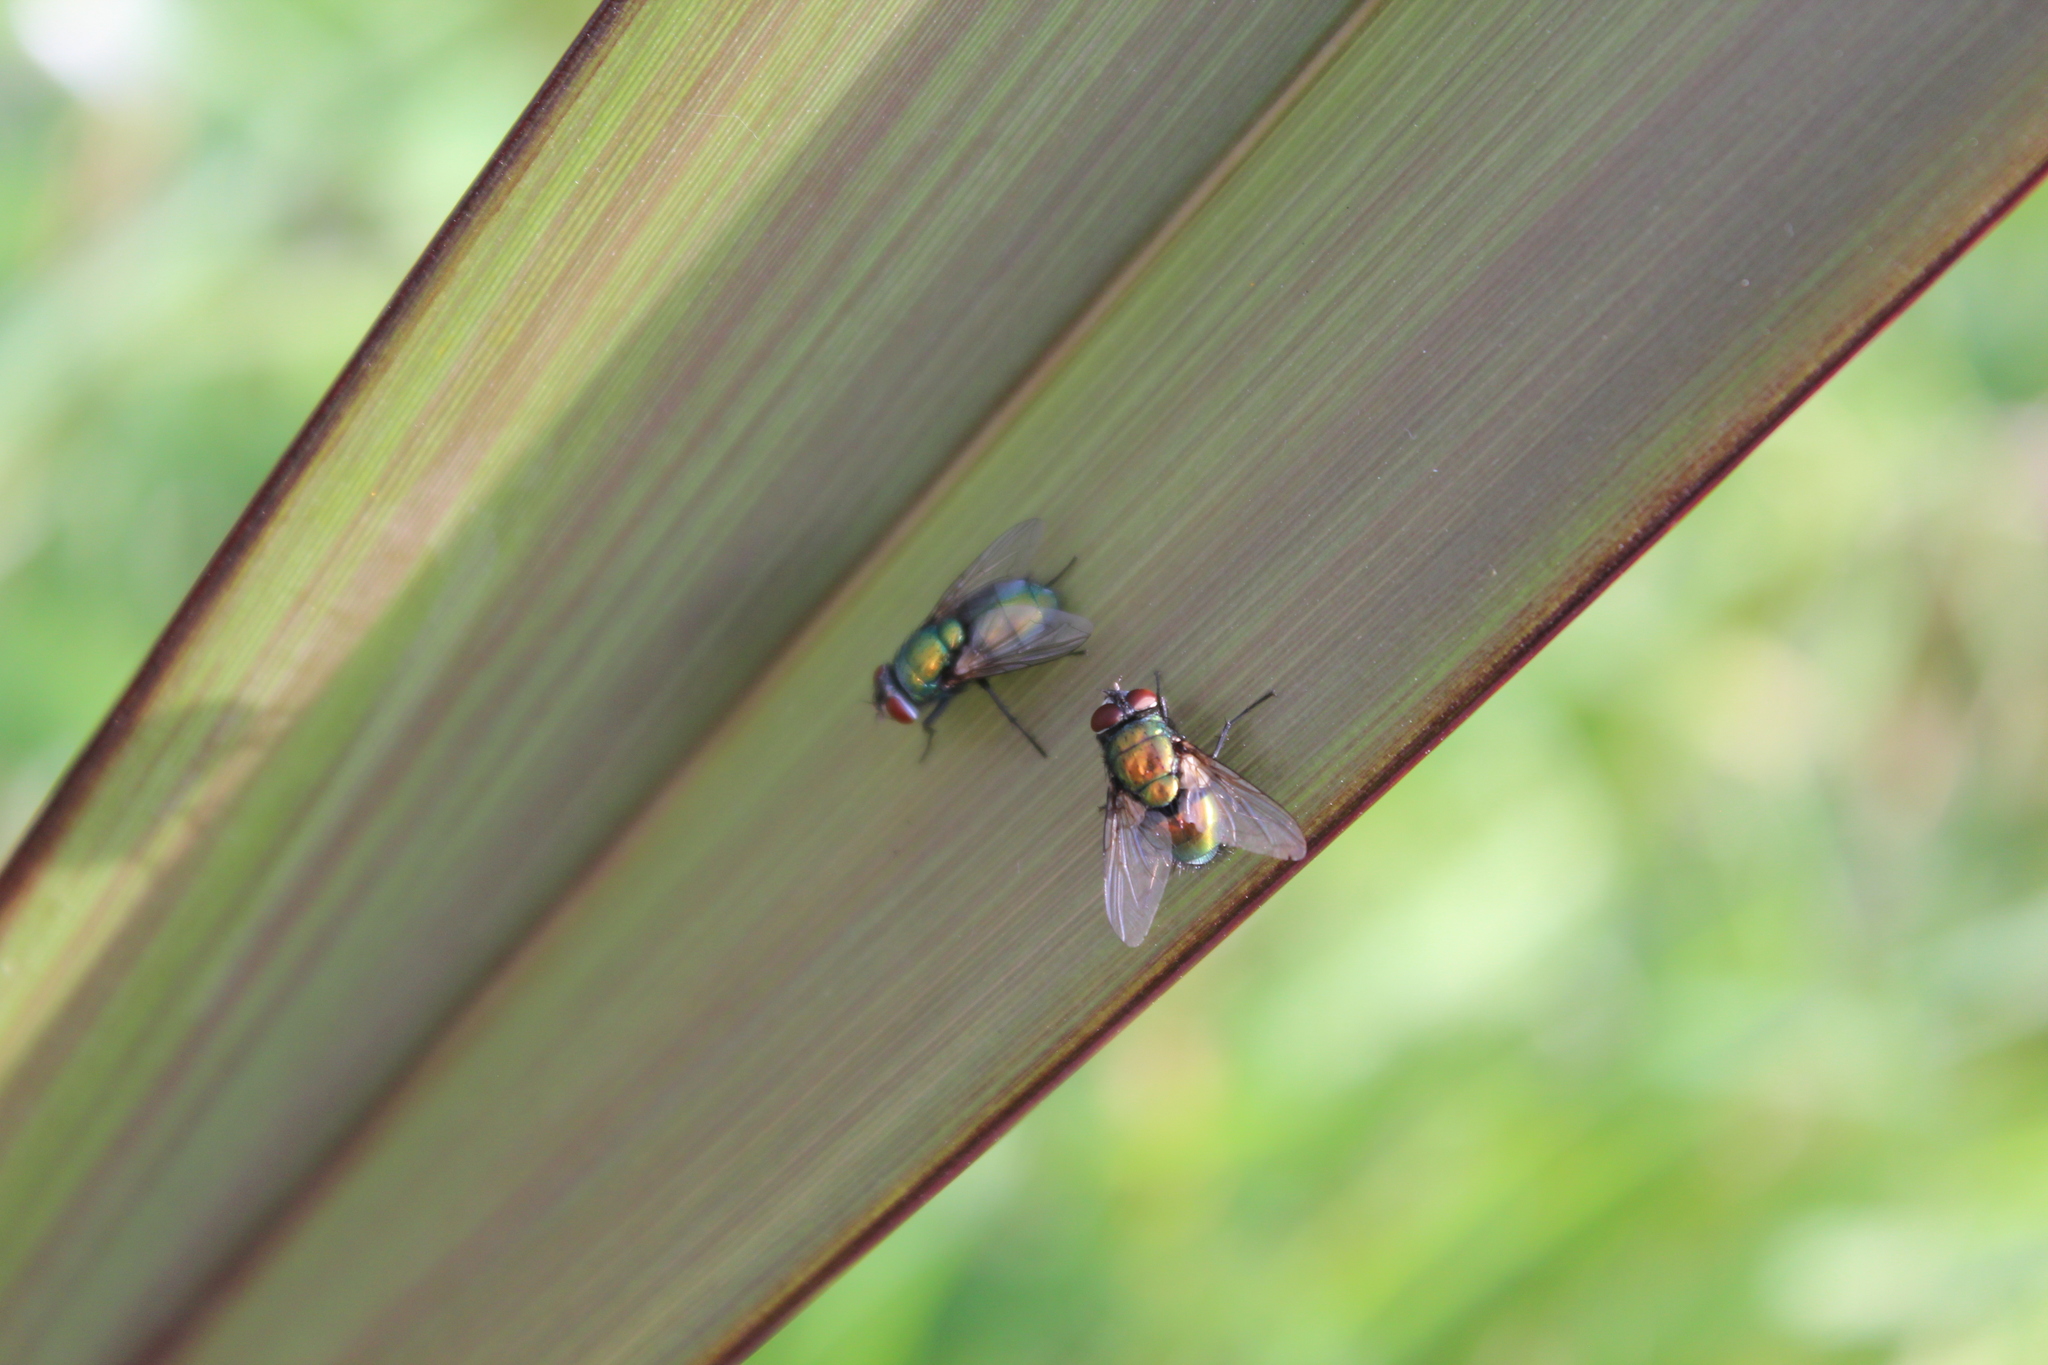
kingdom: Animalia
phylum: Arthropoda
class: Insecta
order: Diptera
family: Calliphoridae
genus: Lucilia
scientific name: Lucilia sericata
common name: Blow fly
